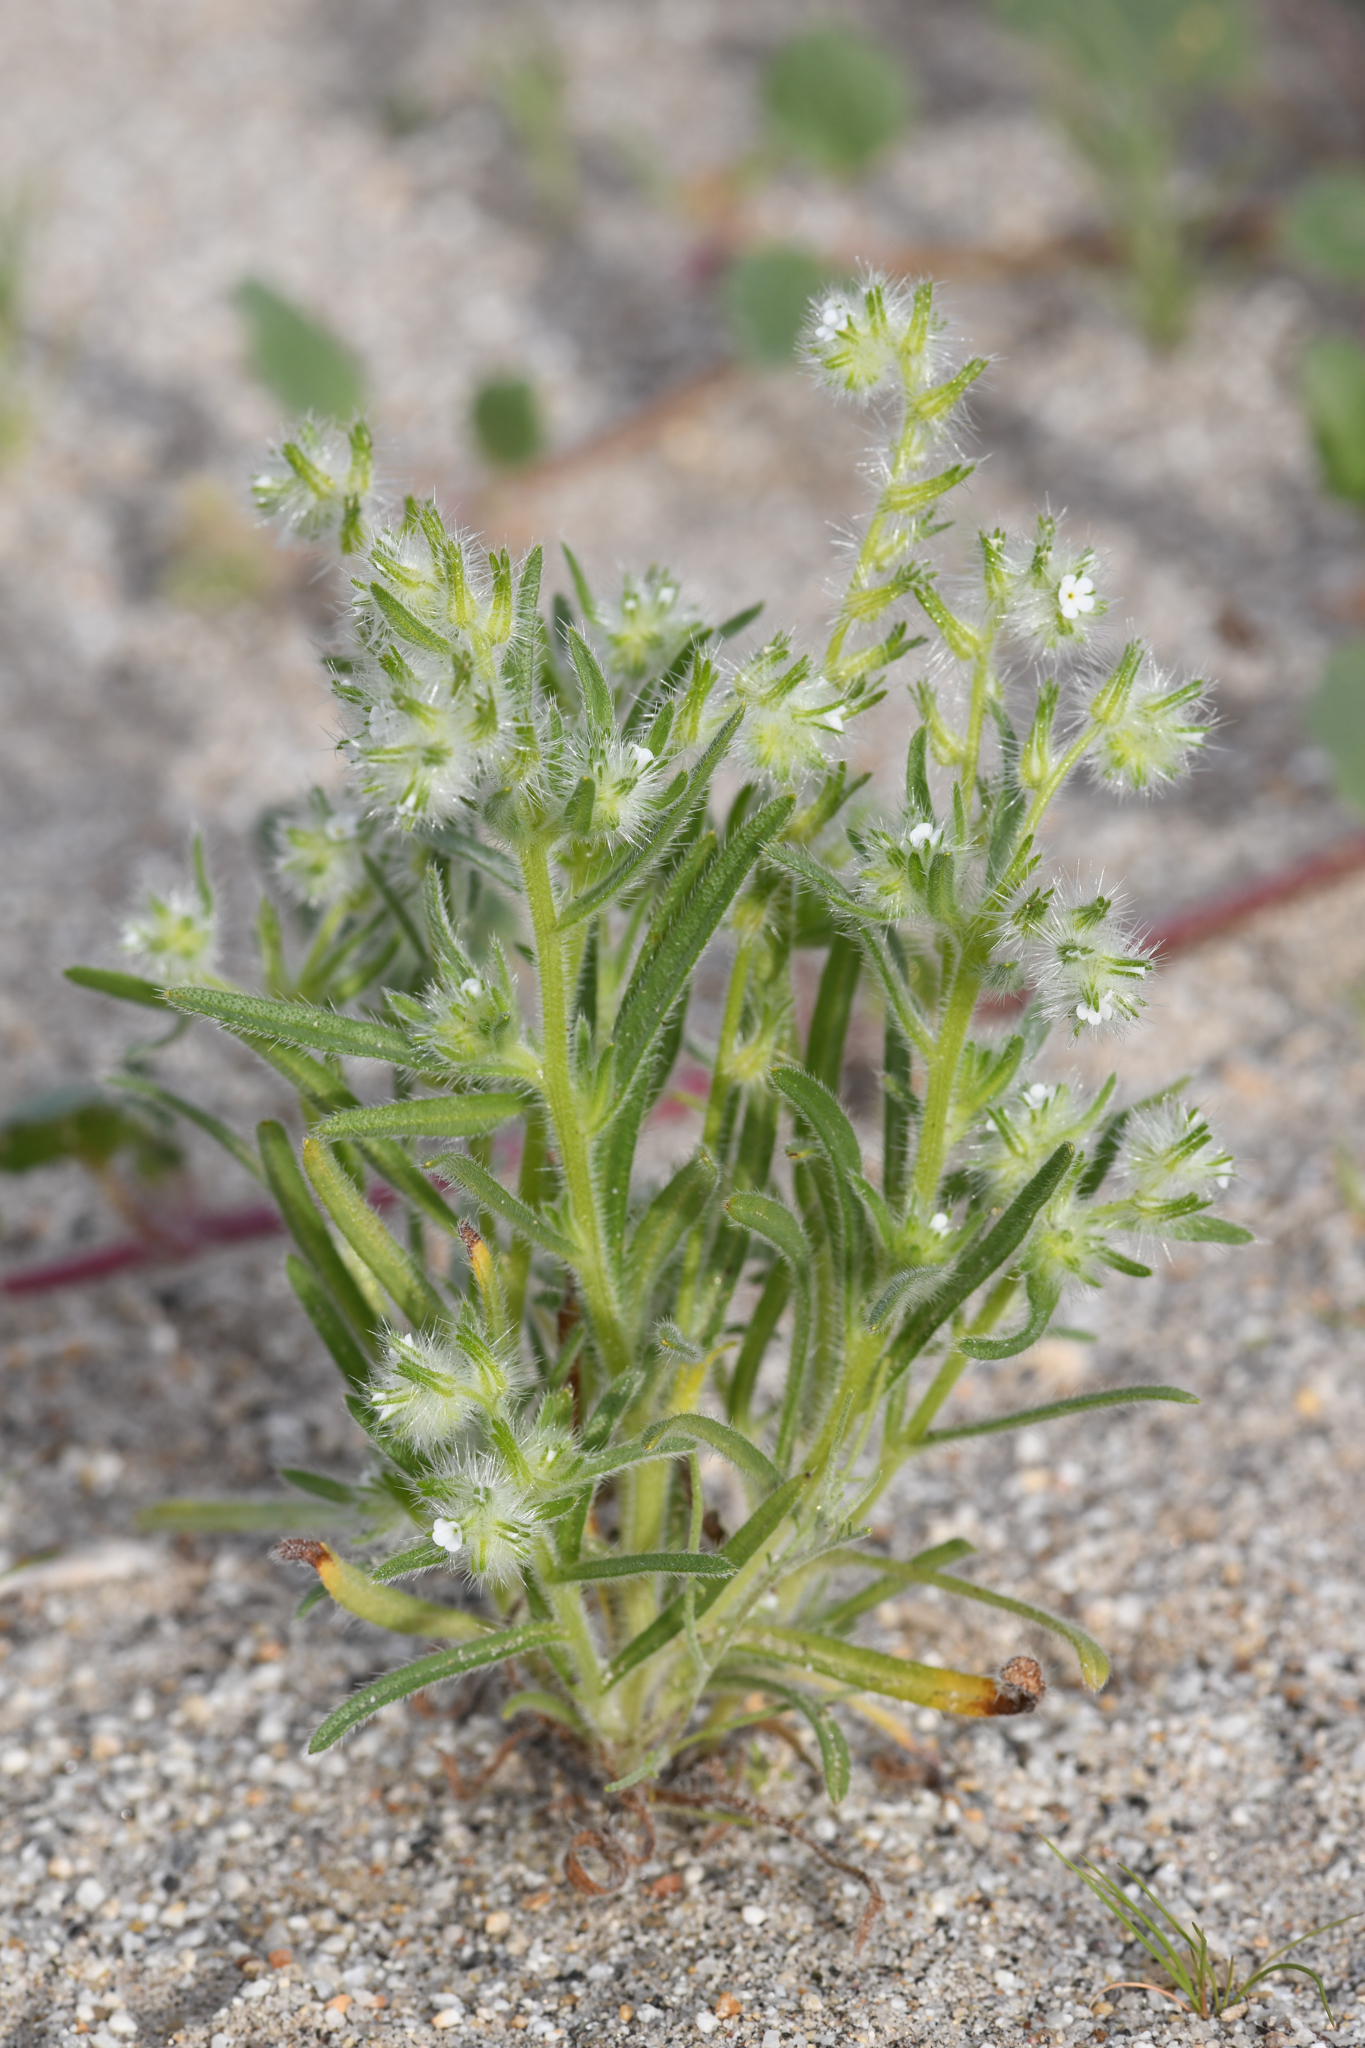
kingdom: Plantae
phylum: Tracheophyta
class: Magnoliopsida
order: Boraginales
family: Boraginaceae
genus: Cryptantha
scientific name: Cryptantha ganderi
